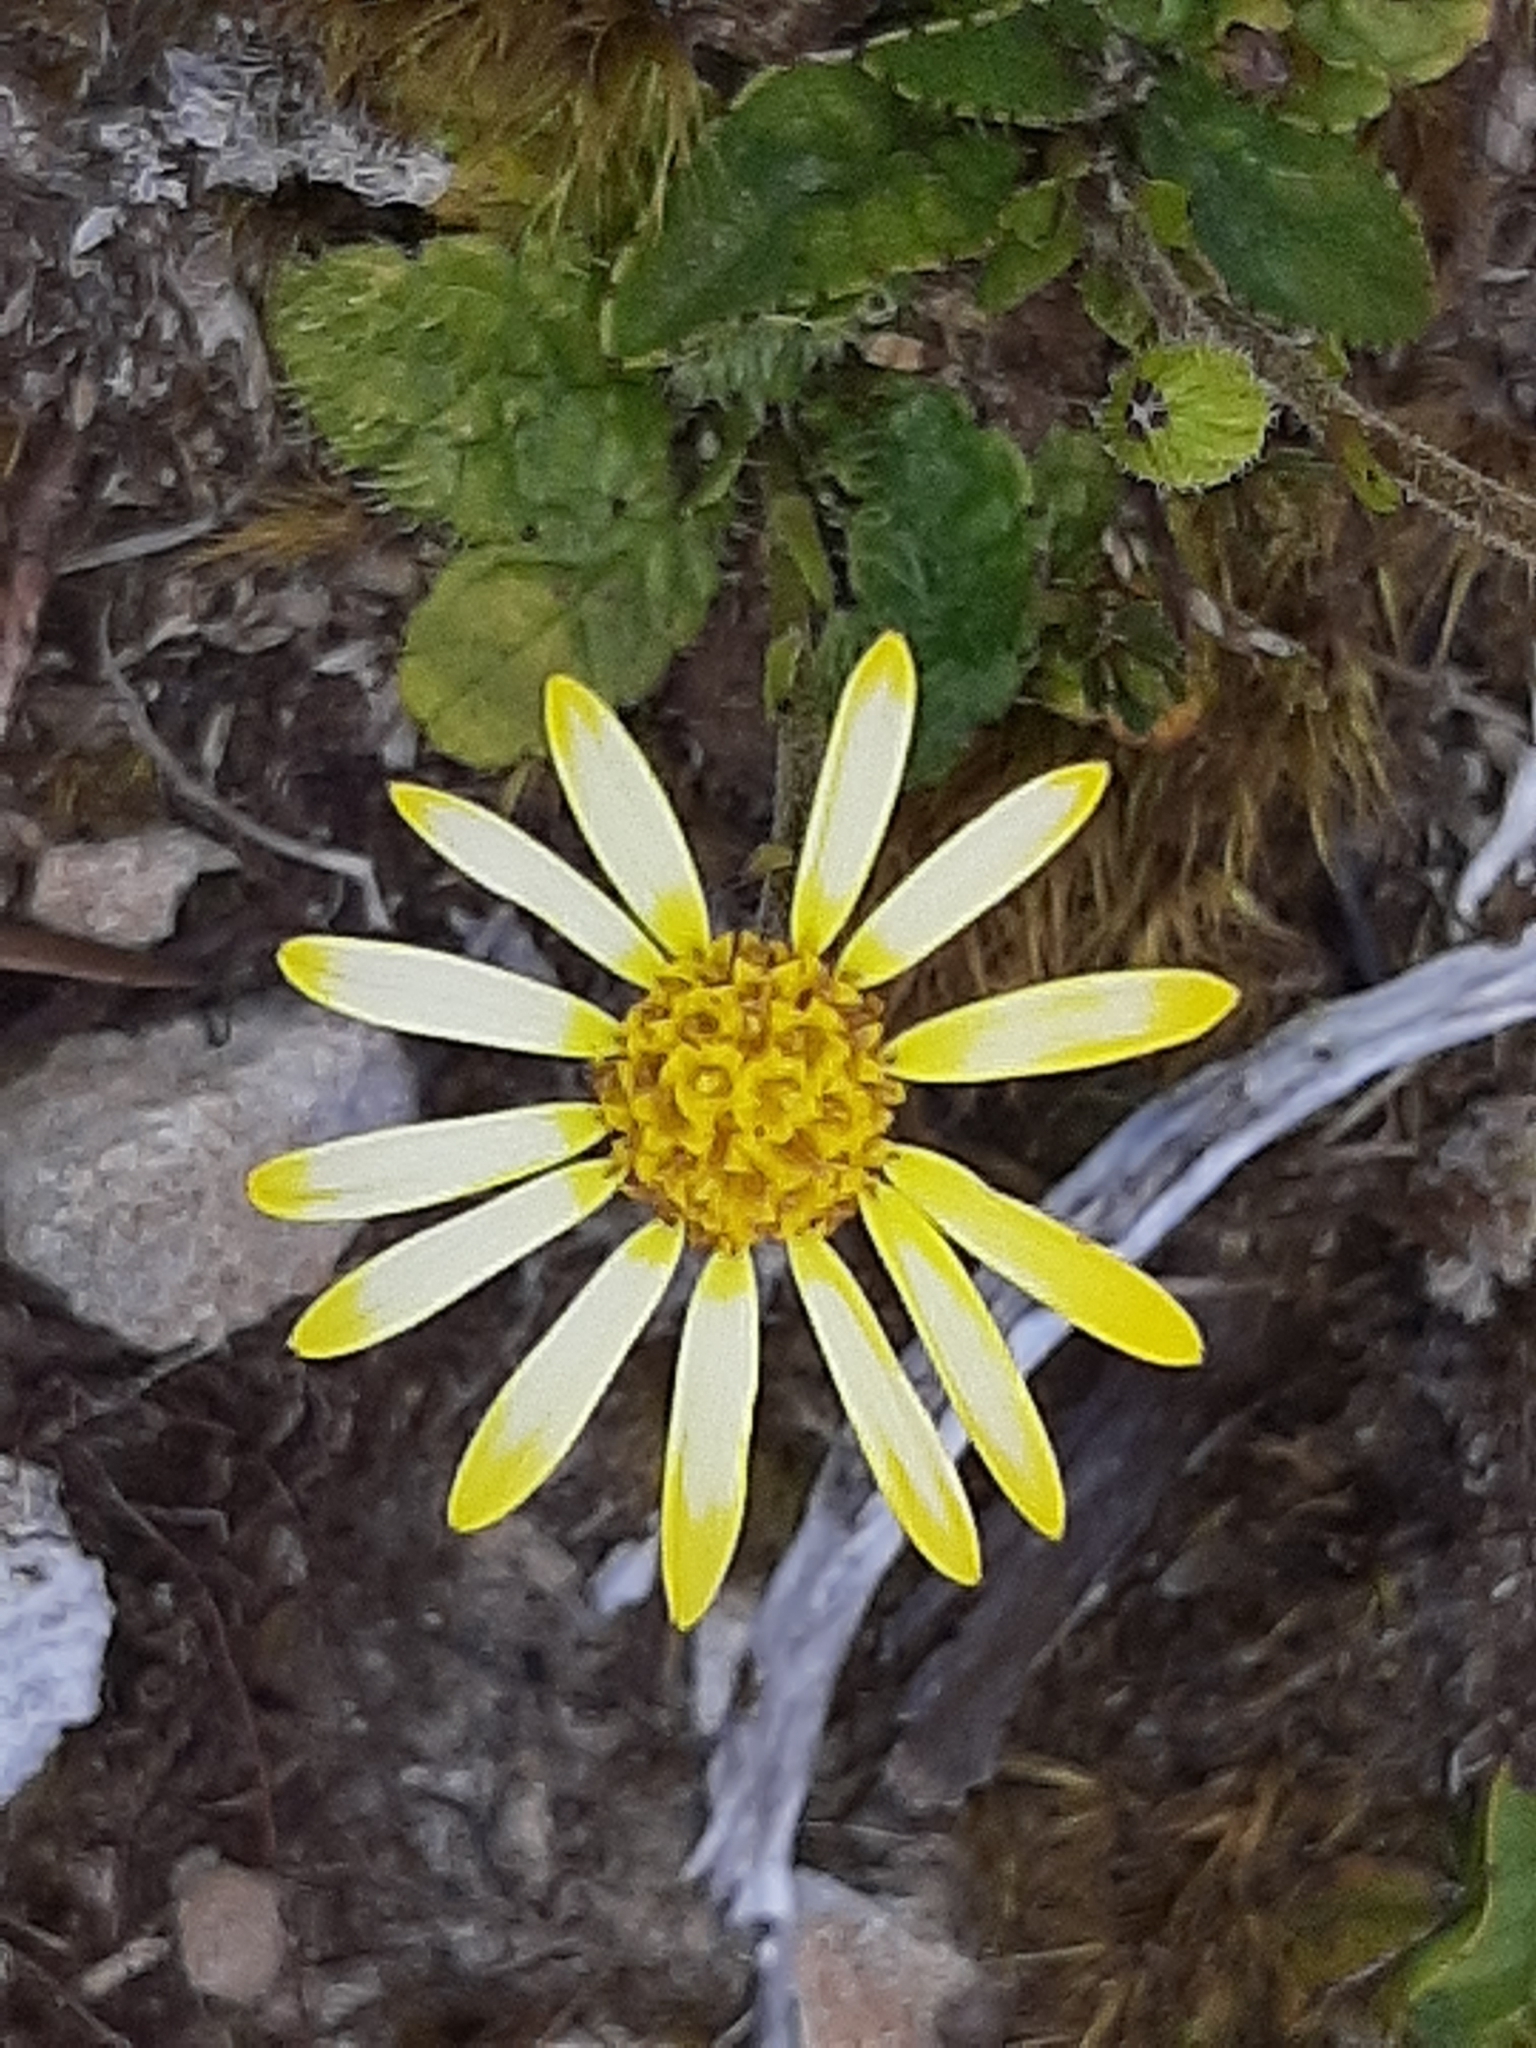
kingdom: Plantae
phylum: Tracheophyta
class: Magnoliopsida
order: Asterales
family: Asteraceae
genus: Brachyglottis
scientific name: Brachyglottis lagopus
